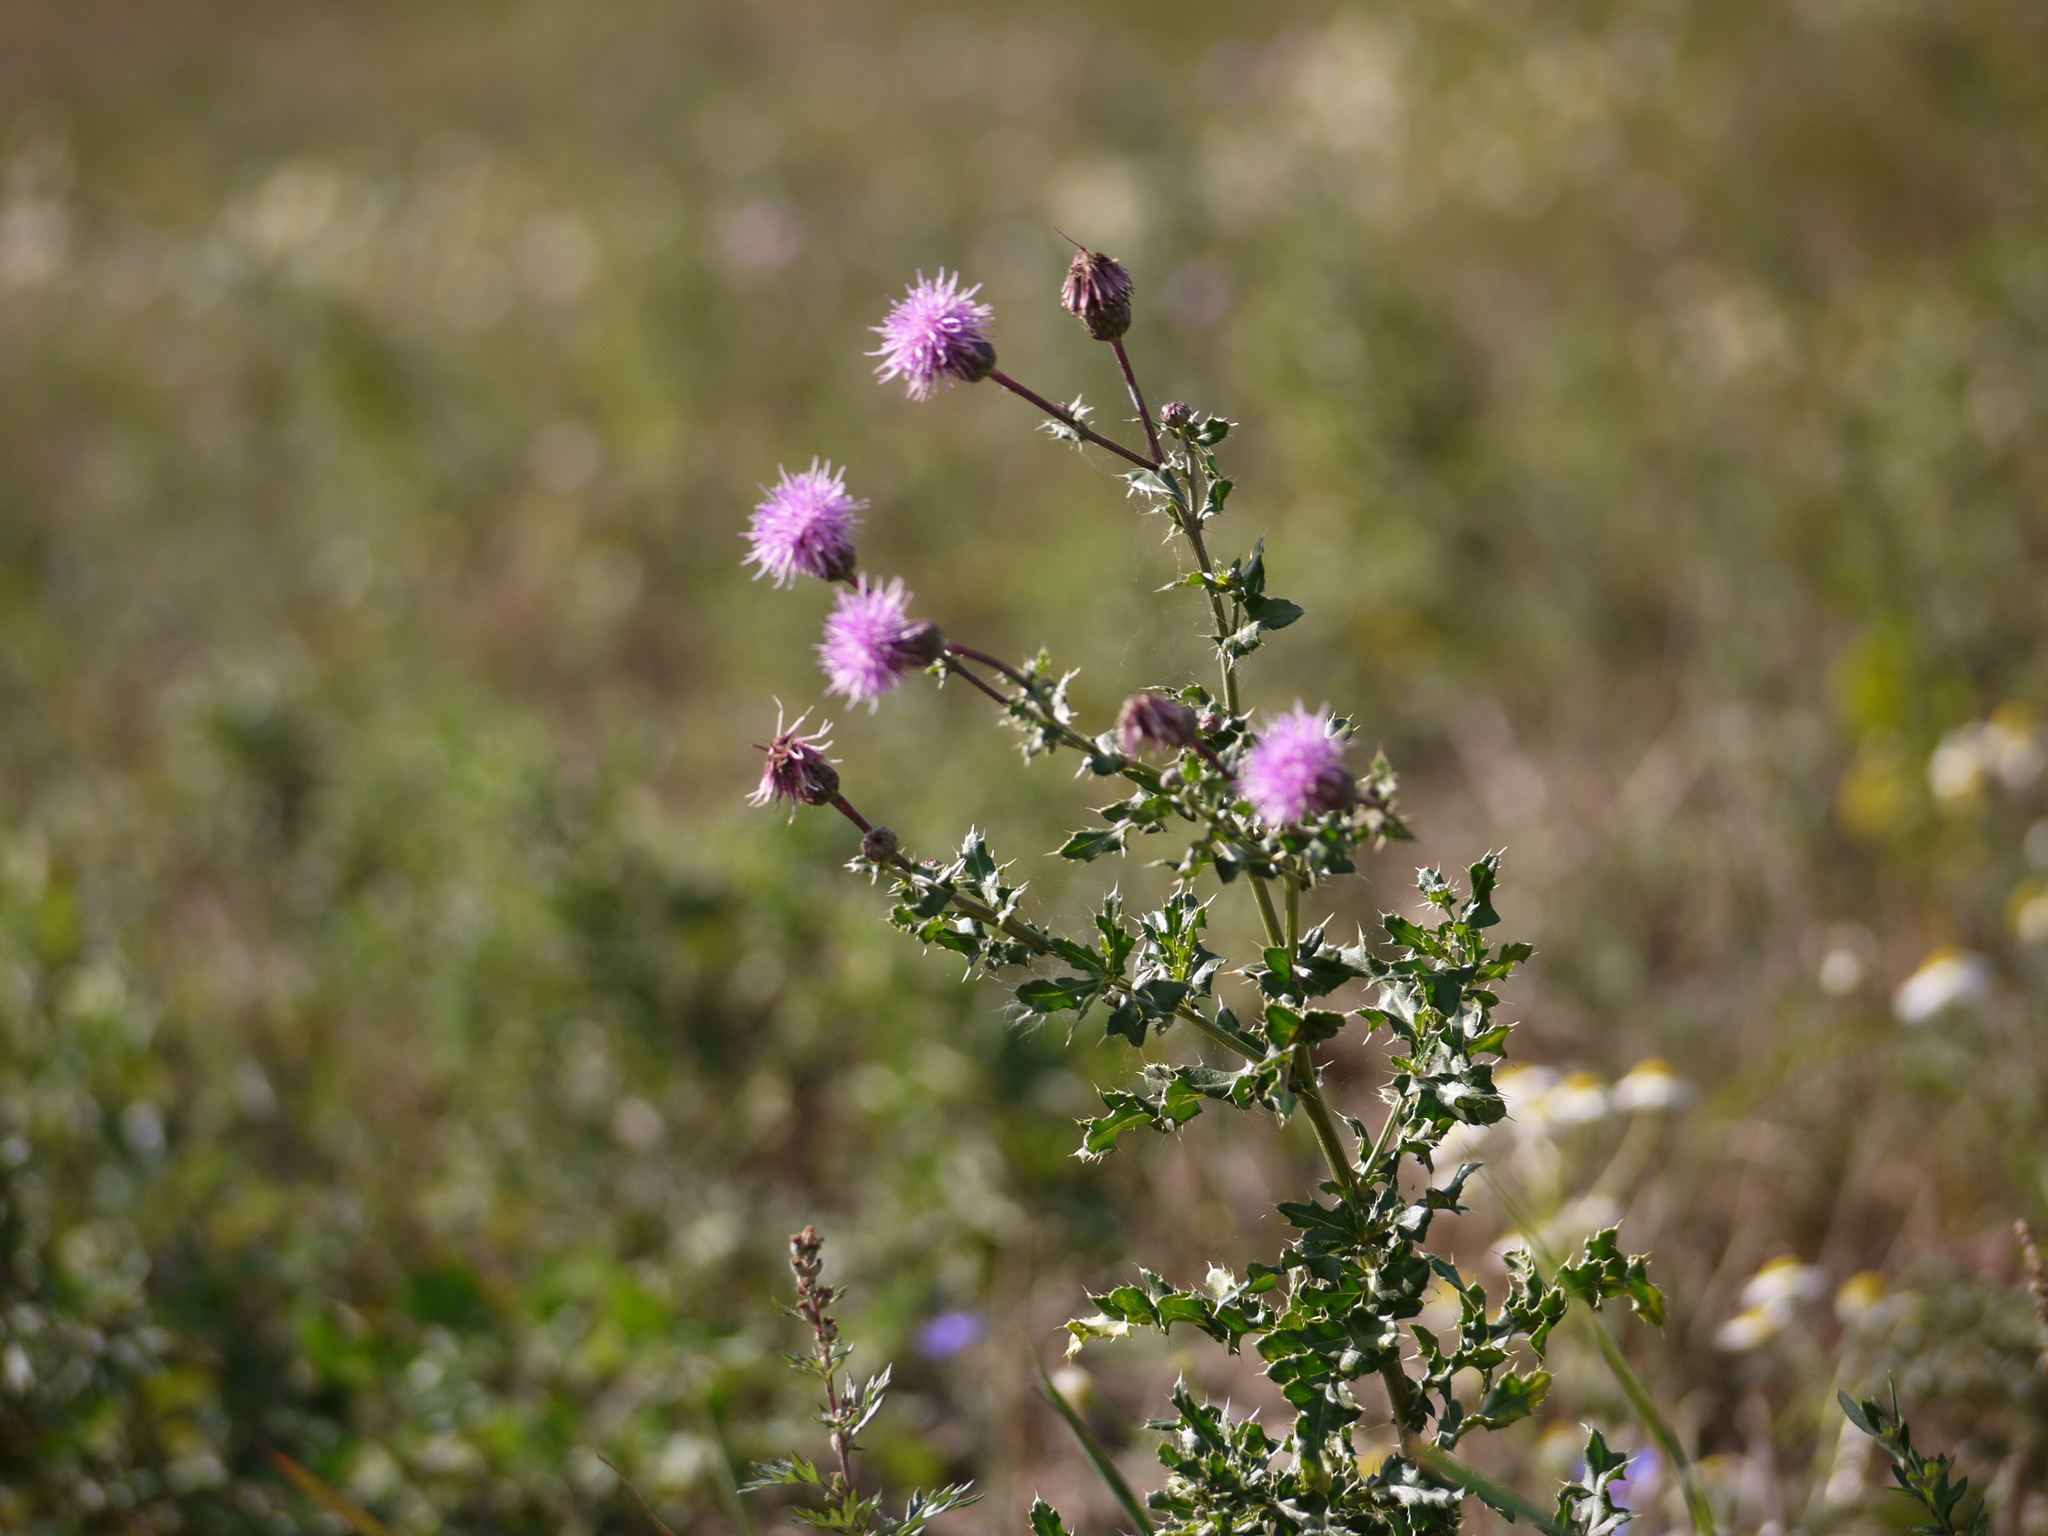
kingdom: Plantae
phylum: Tracheophyta
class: Magnoliopsida
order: Asterales
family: Asteraceae
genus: Cirsium
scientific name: Cirsium arvense
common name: Creeping thistle
